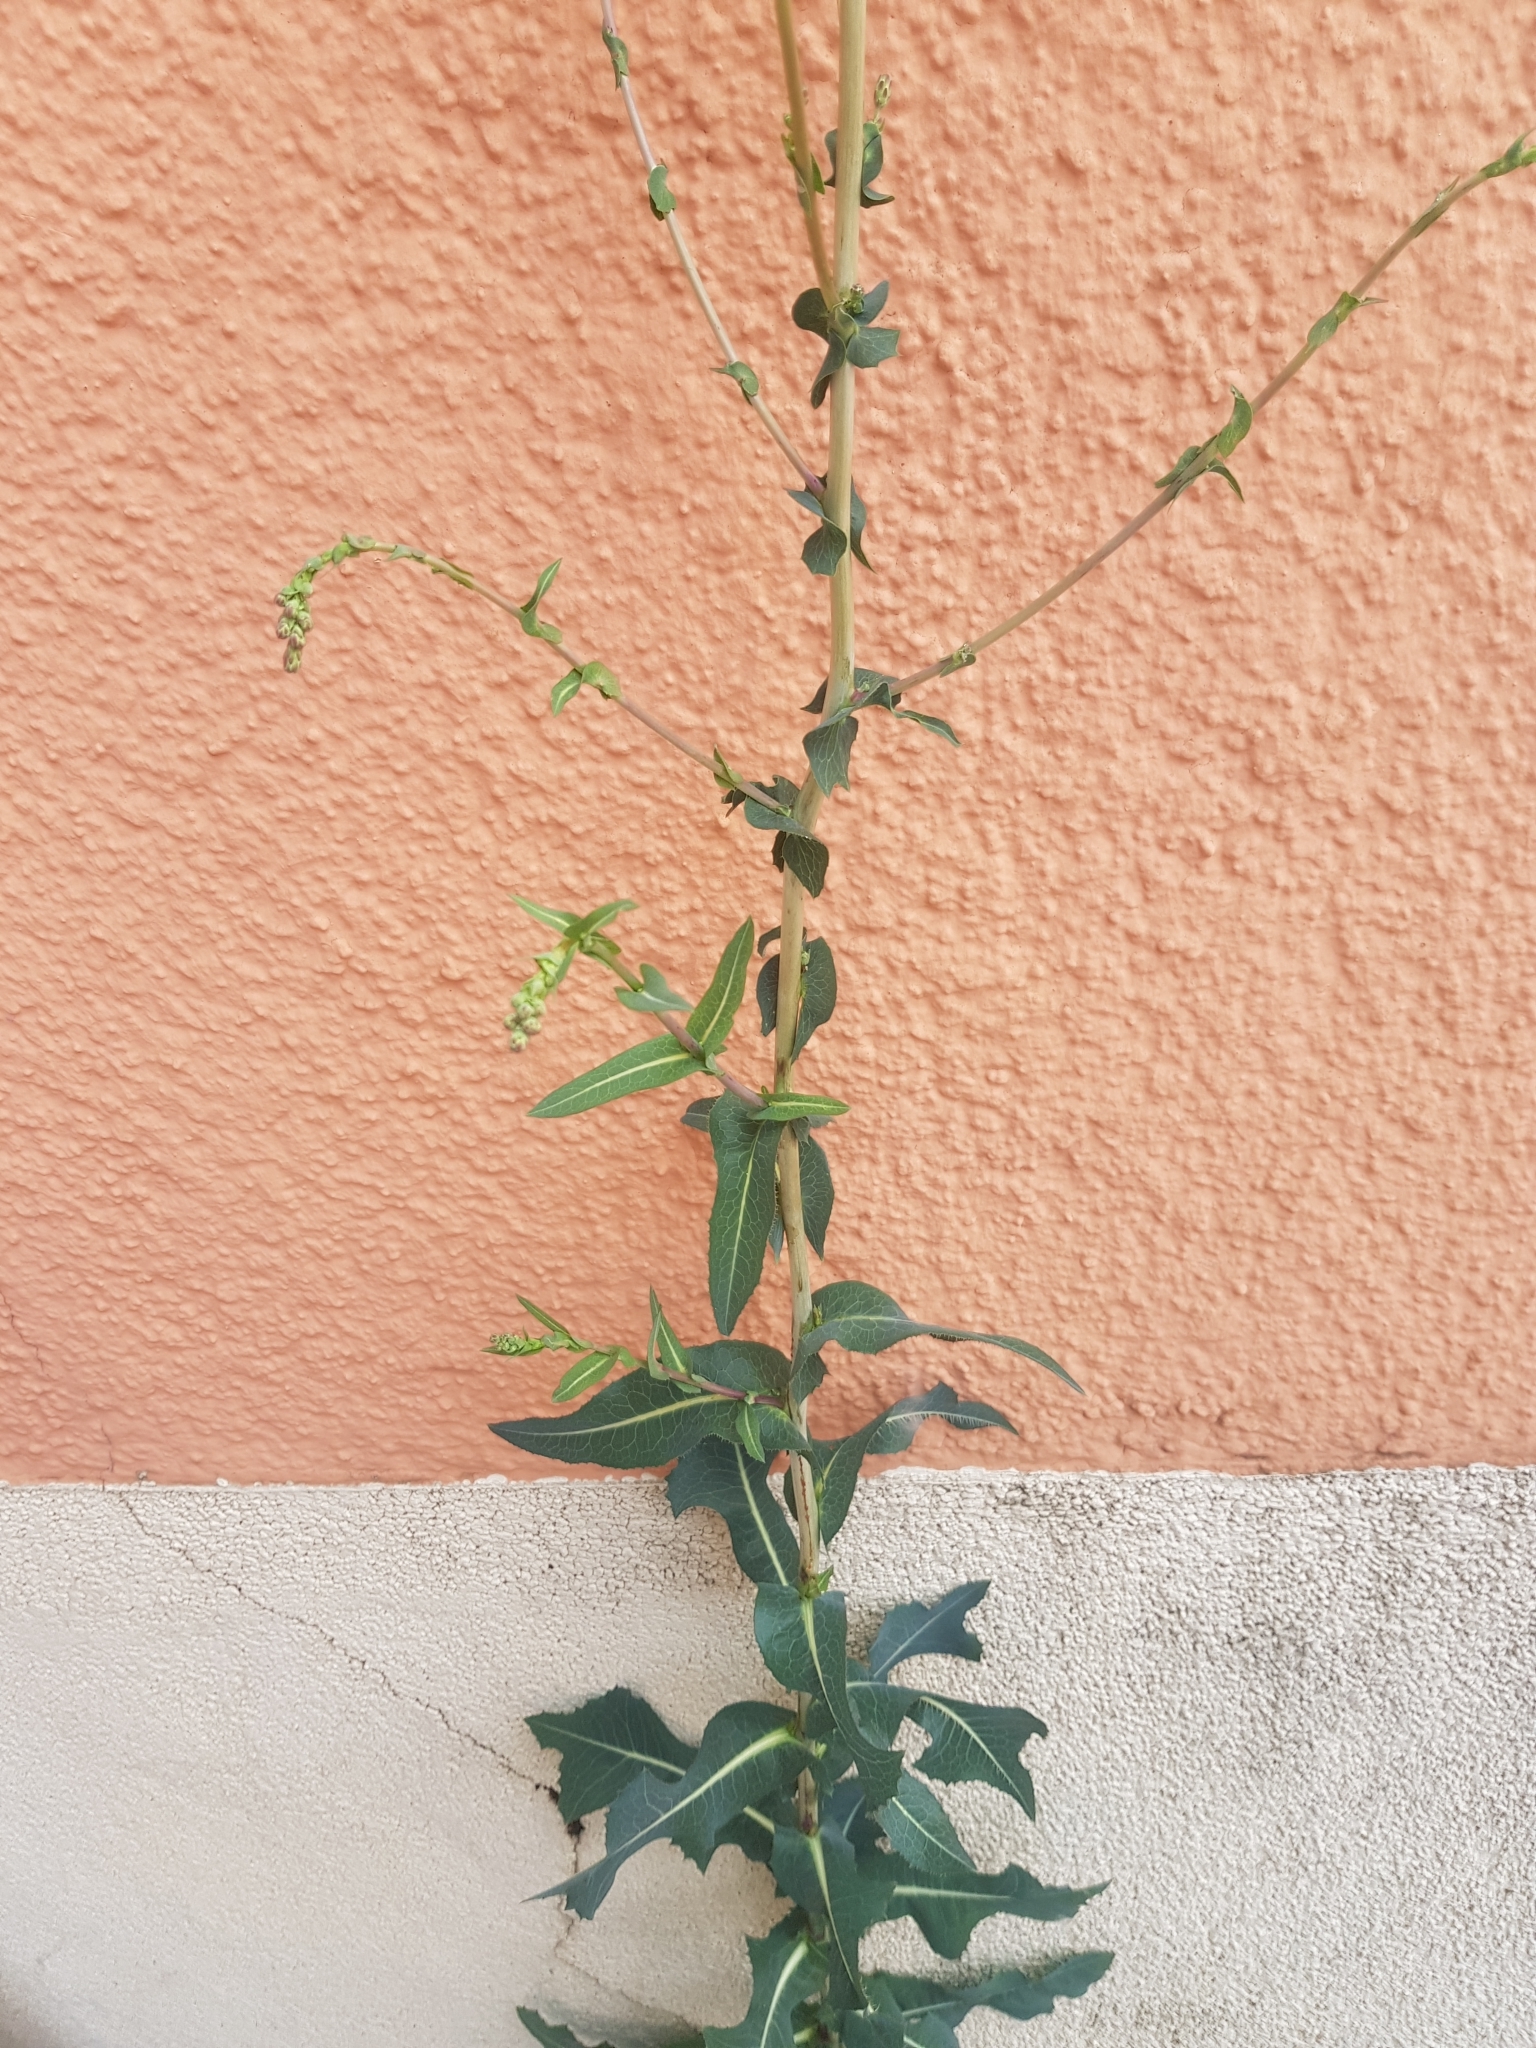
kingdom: Plantae
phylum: Tracheophyta
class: Magnoliopsida
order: Asterales
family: Asteraceae
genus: Lactuca
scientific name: Lactuca serriola
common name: Prickly lettuce
